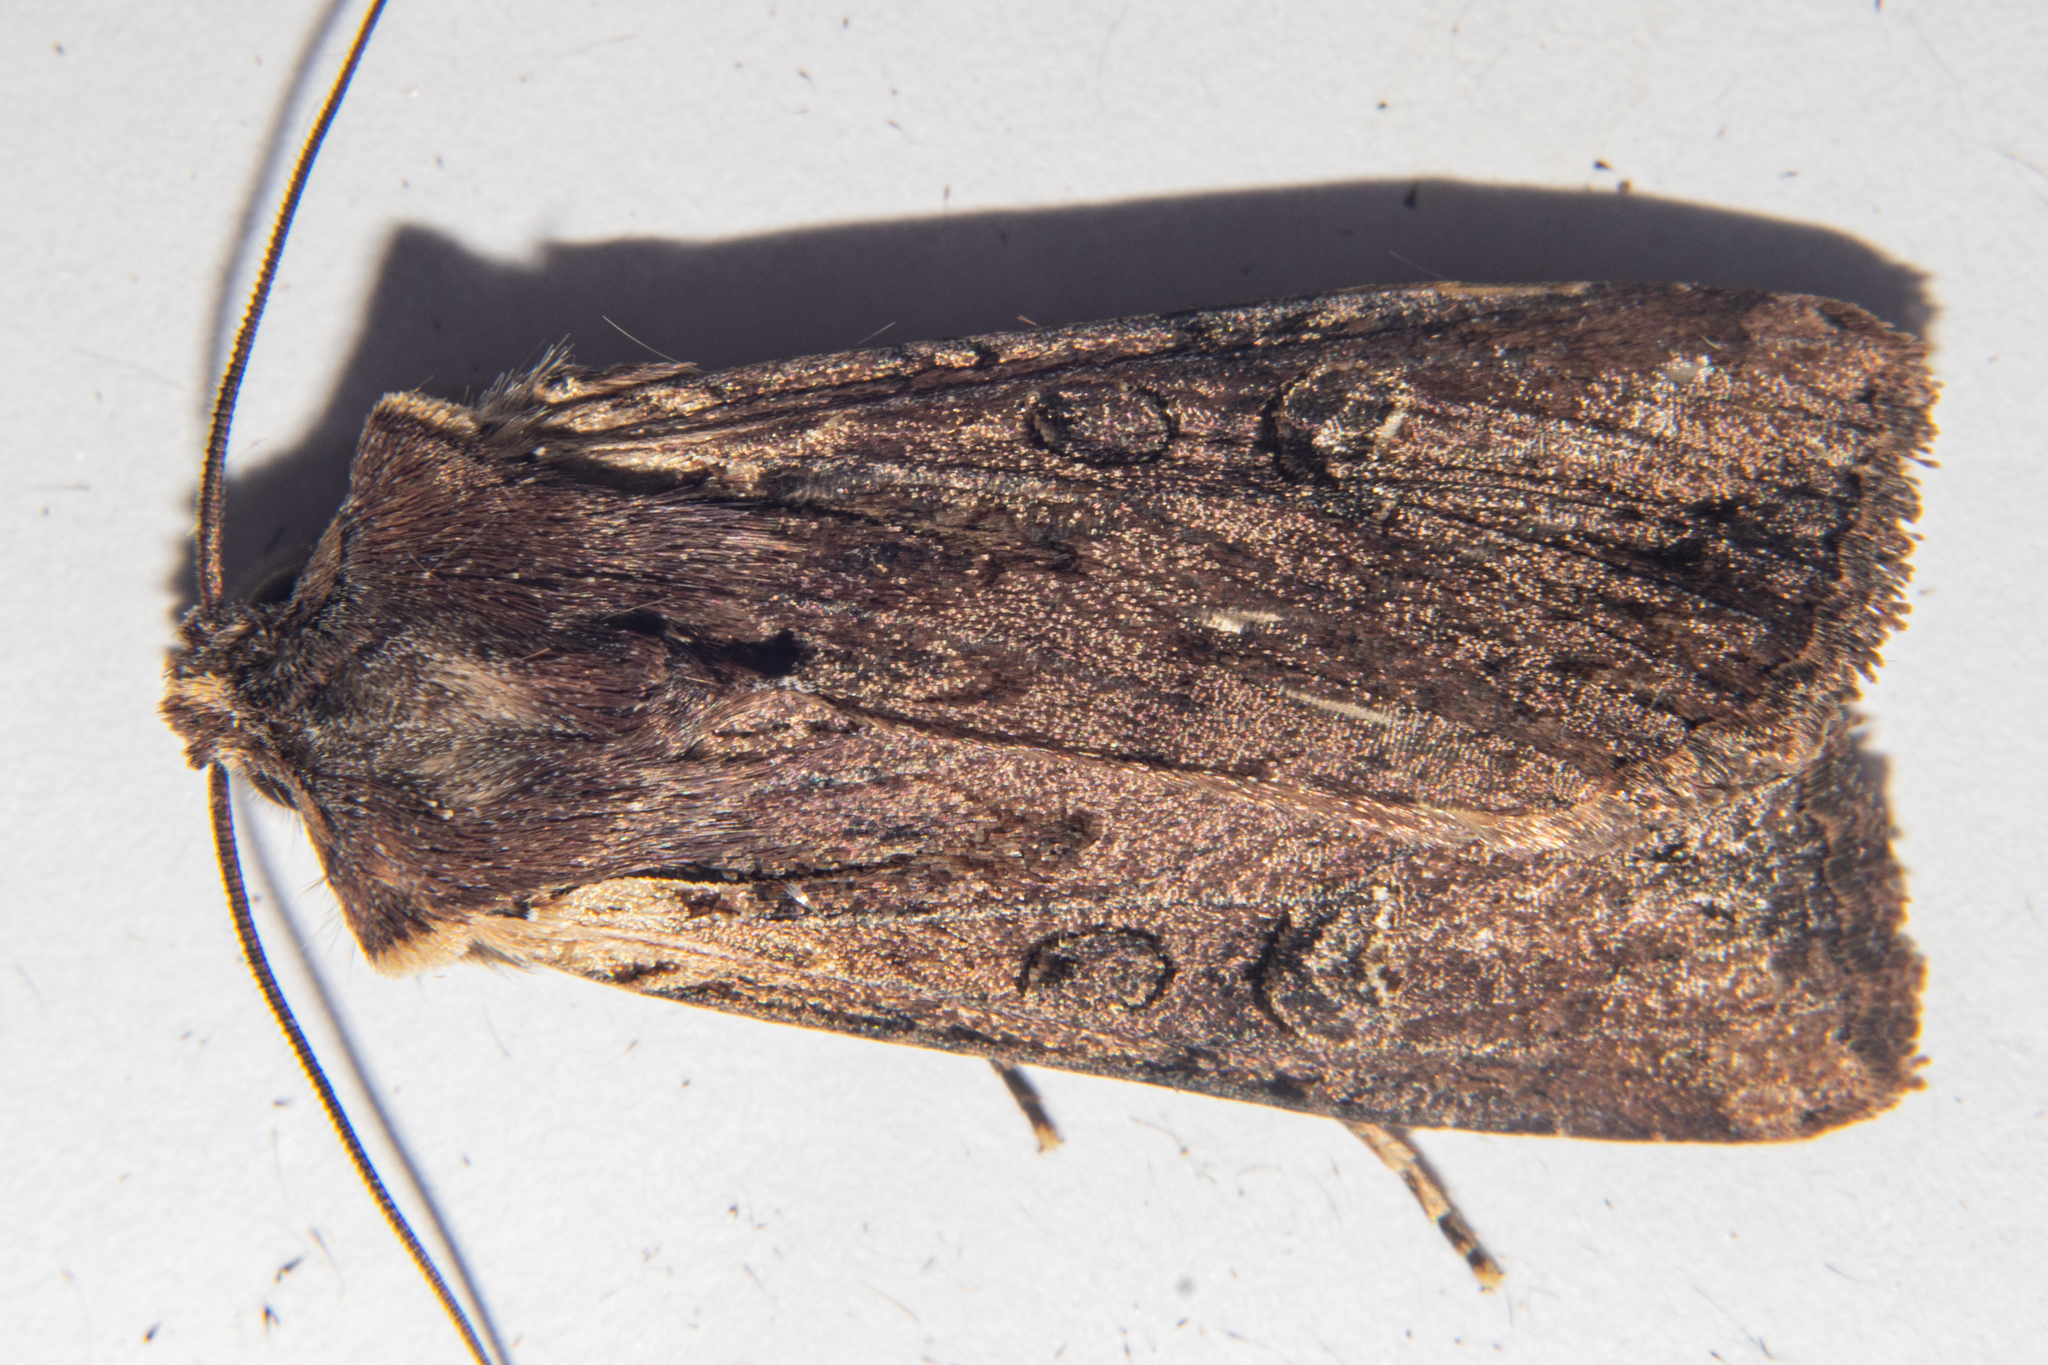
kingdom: Animalia
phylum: Arthropoda
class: Insecta
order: Lepidoptera
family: Noctuidae
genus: Ichneutica
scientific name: Ichneutica omoplaca
